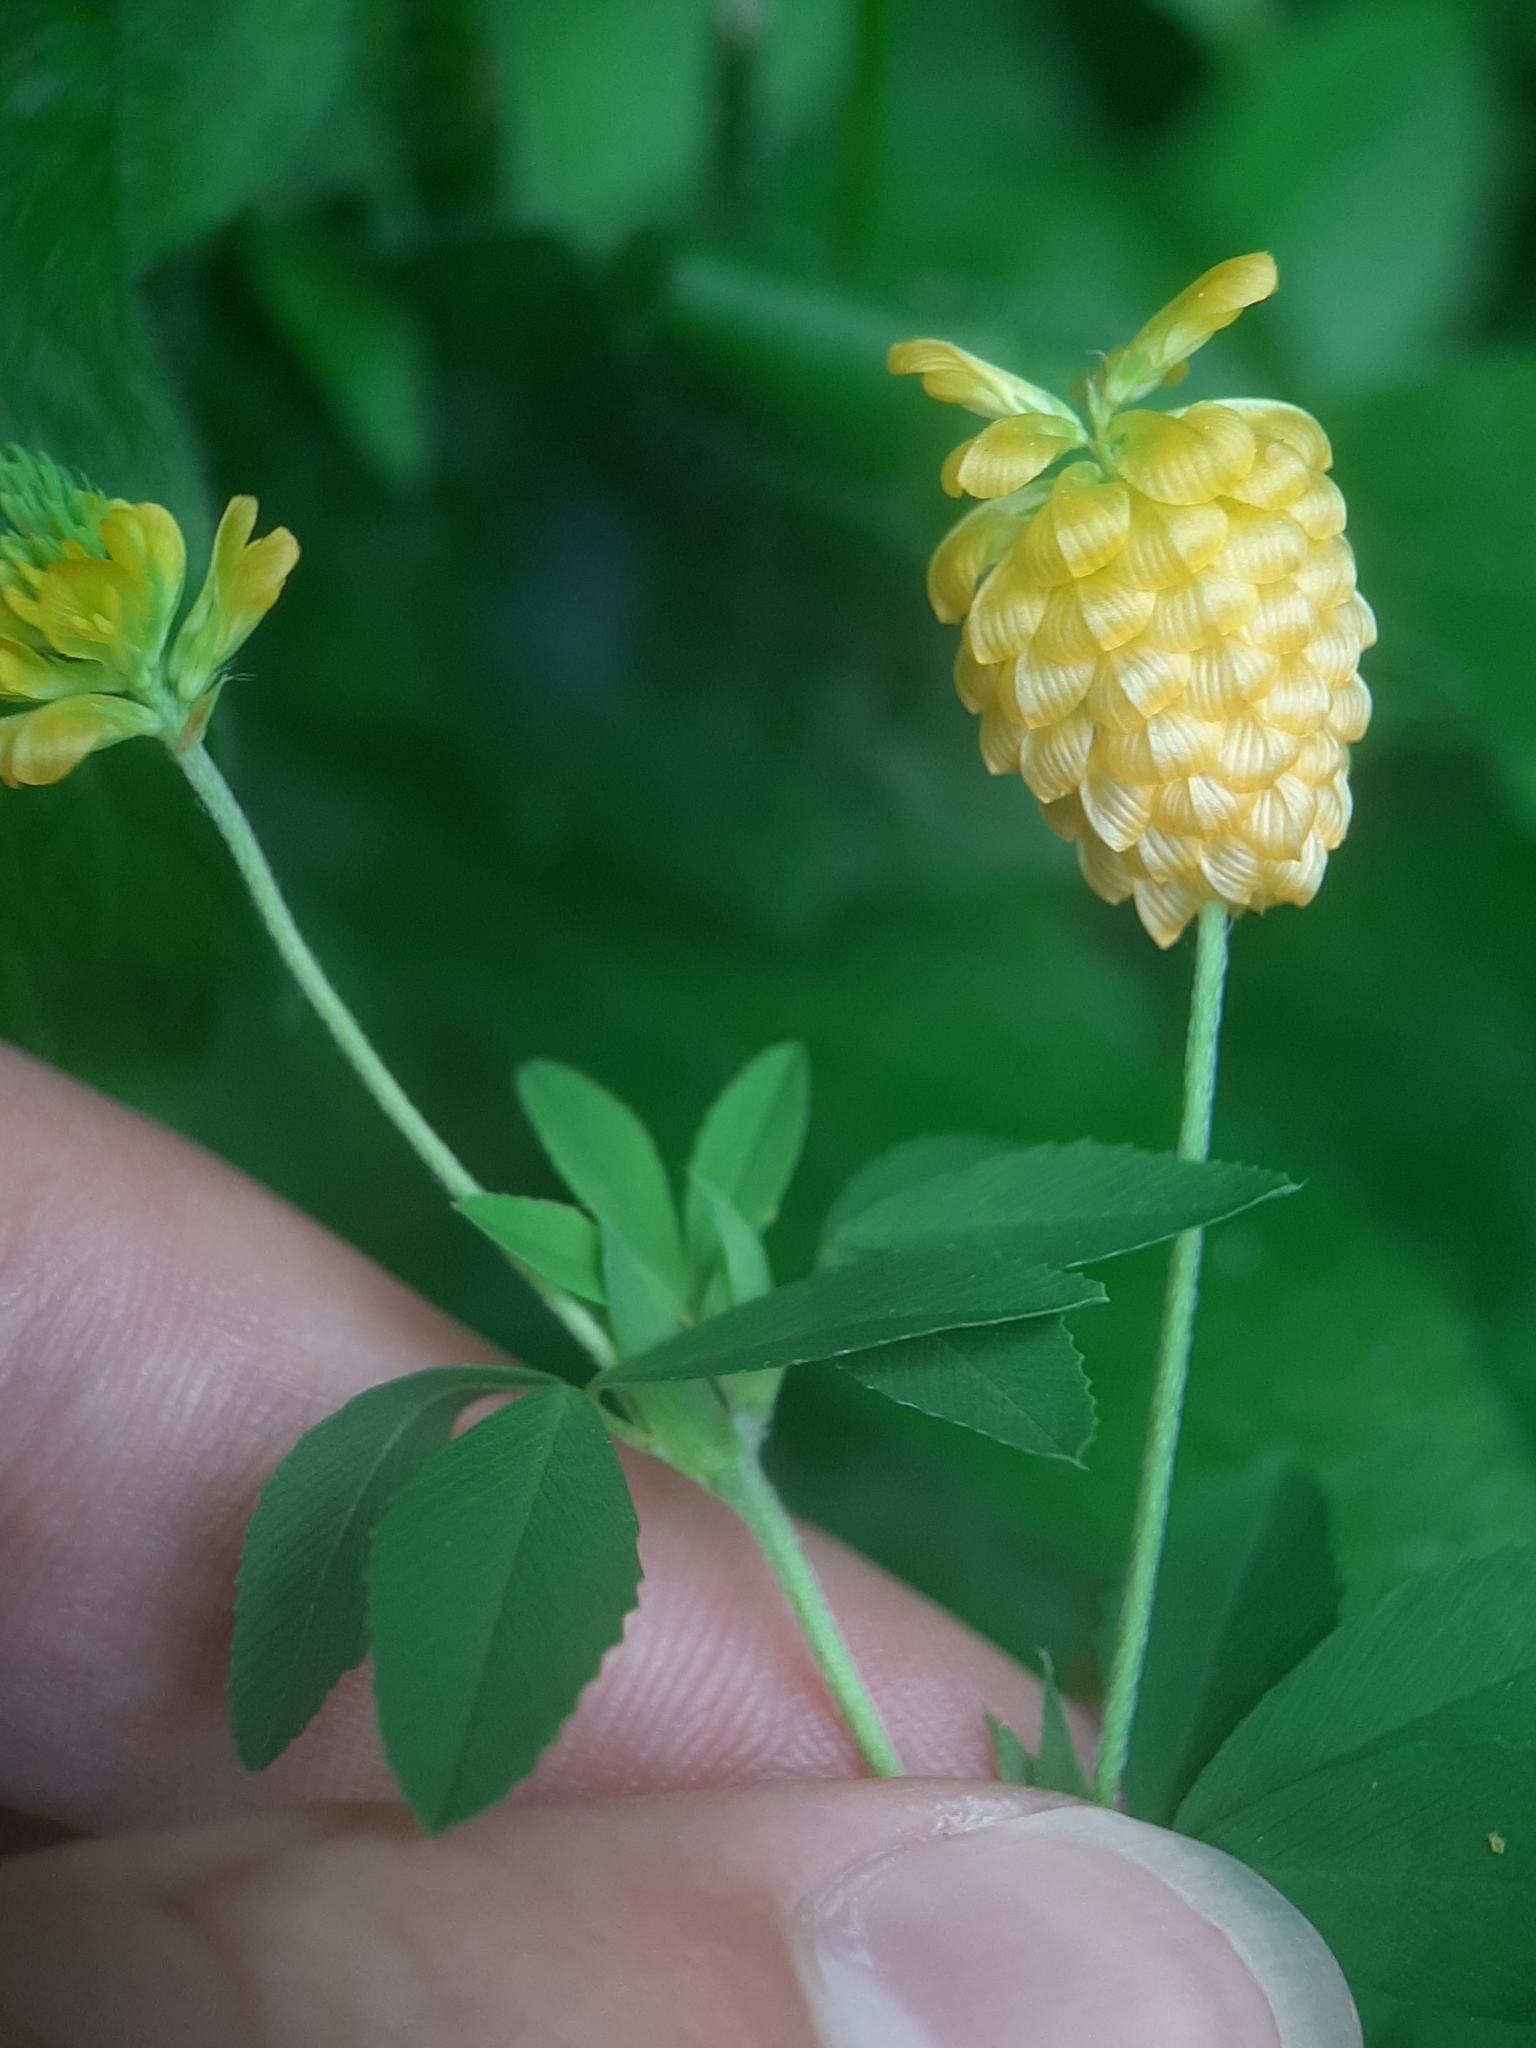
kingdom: Plantae
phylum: Tracheophyta
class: Magnoliopsida
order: Fabales
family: Fabaceae
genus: Trifolium
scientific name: Trifolium aureum
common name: Golden clover
